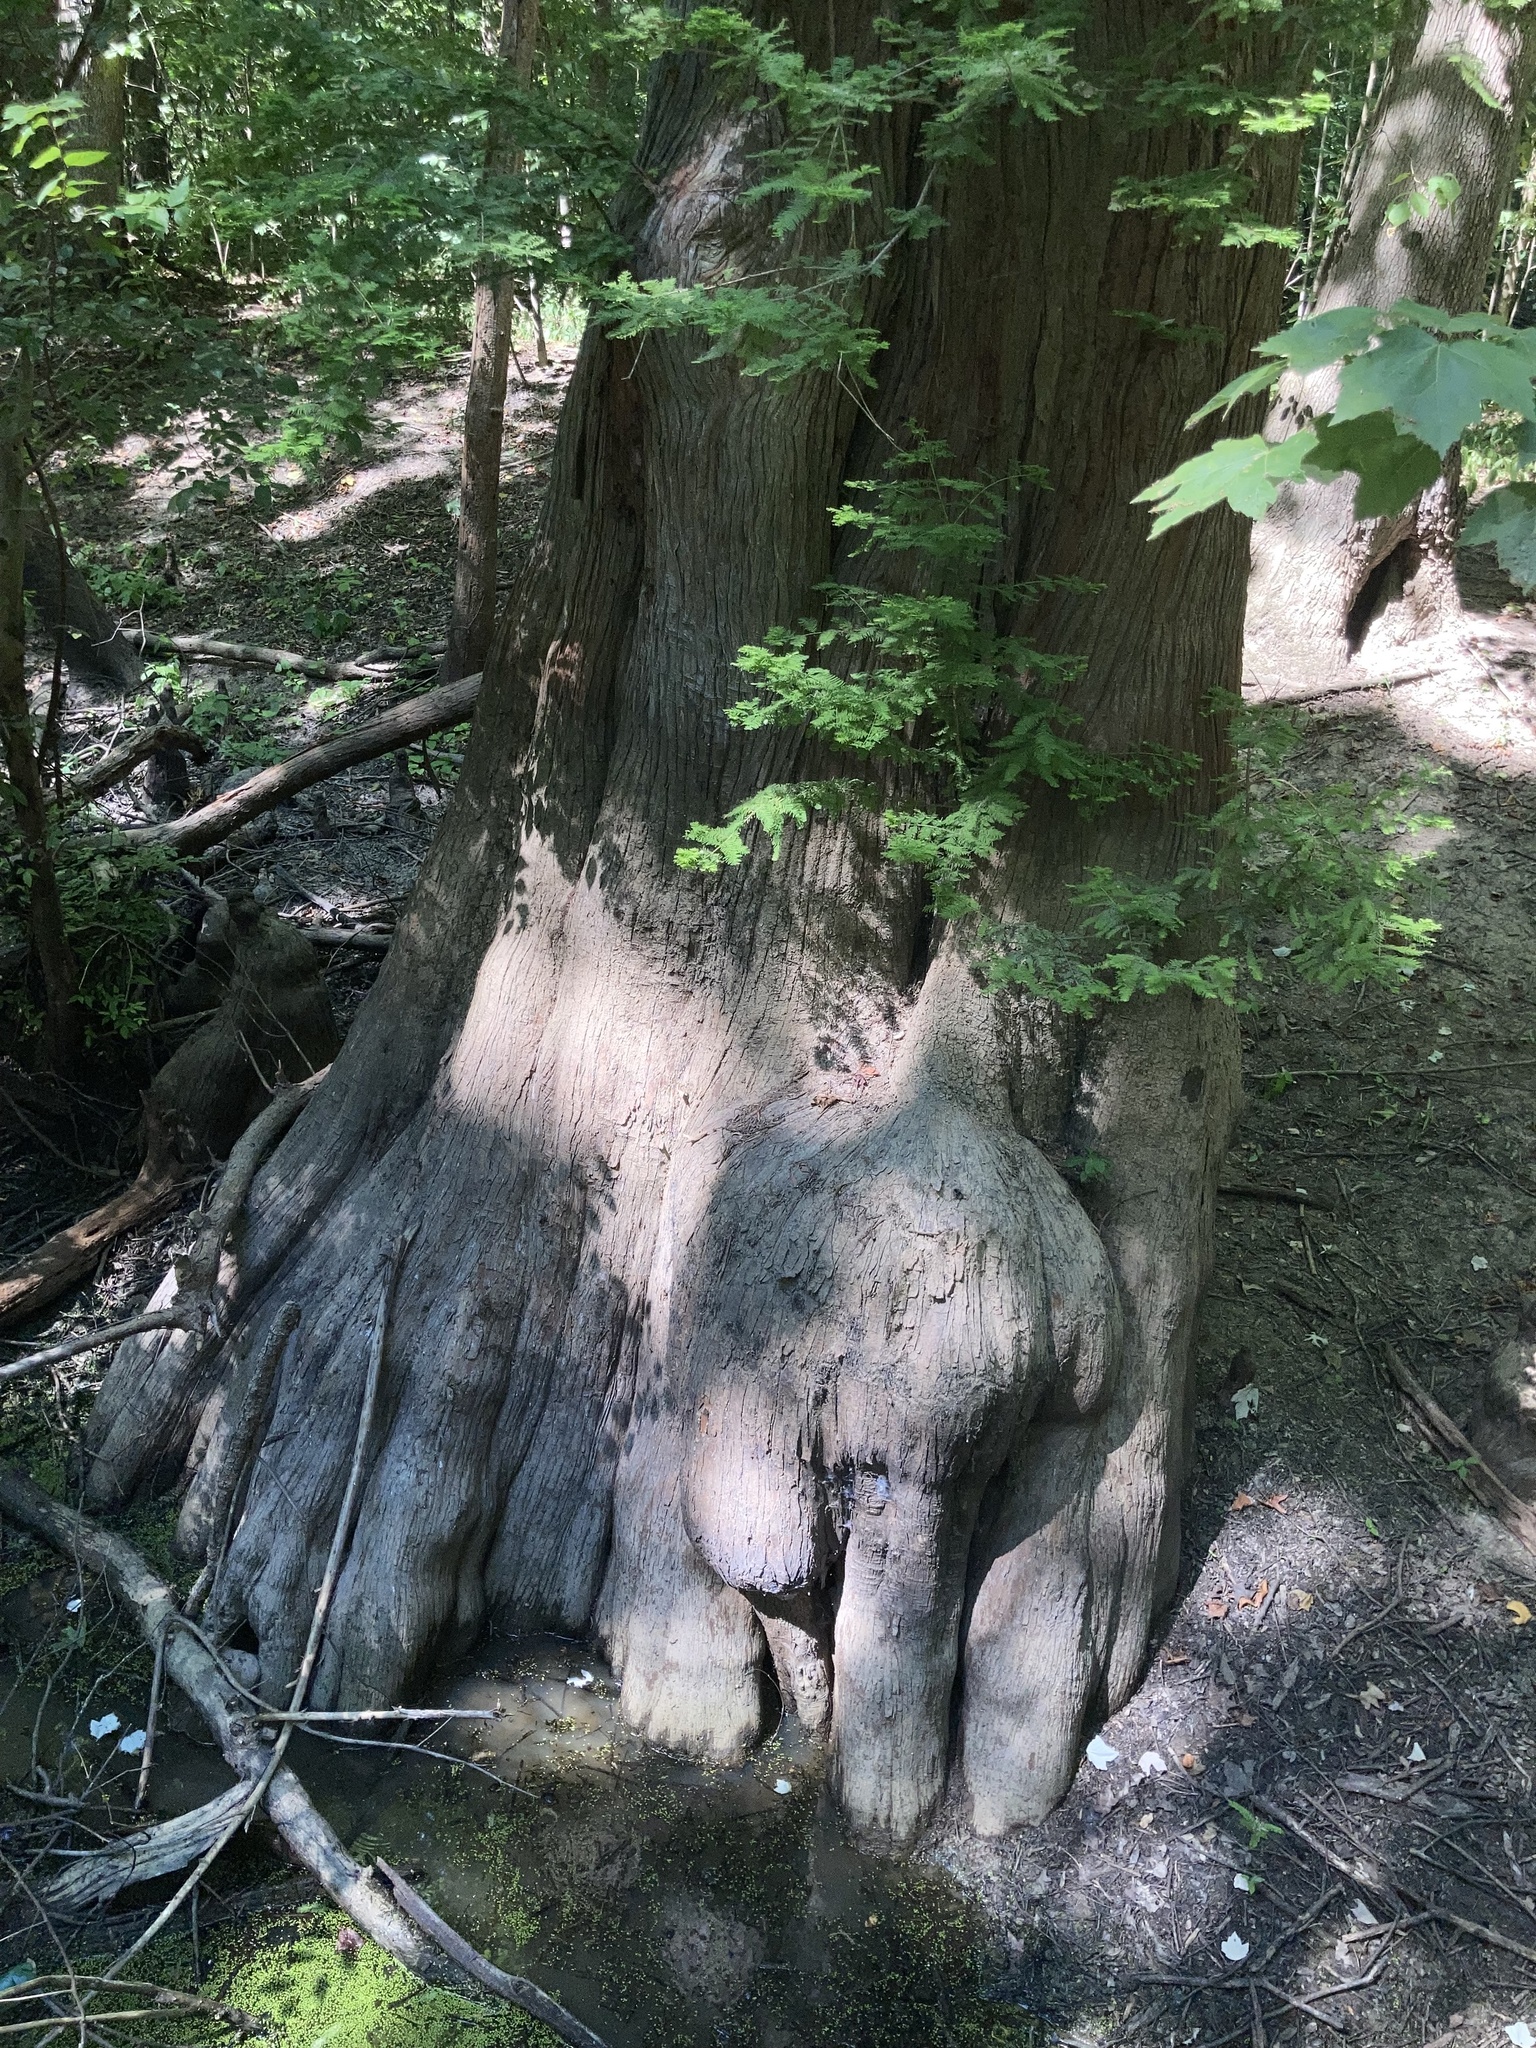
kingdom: Plantae
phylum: Tracheophyta
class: Pinopsida
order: Pinales
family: Cupressaceae
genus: Taxodium
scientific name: Taxodium distichum
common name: Bald cypress
